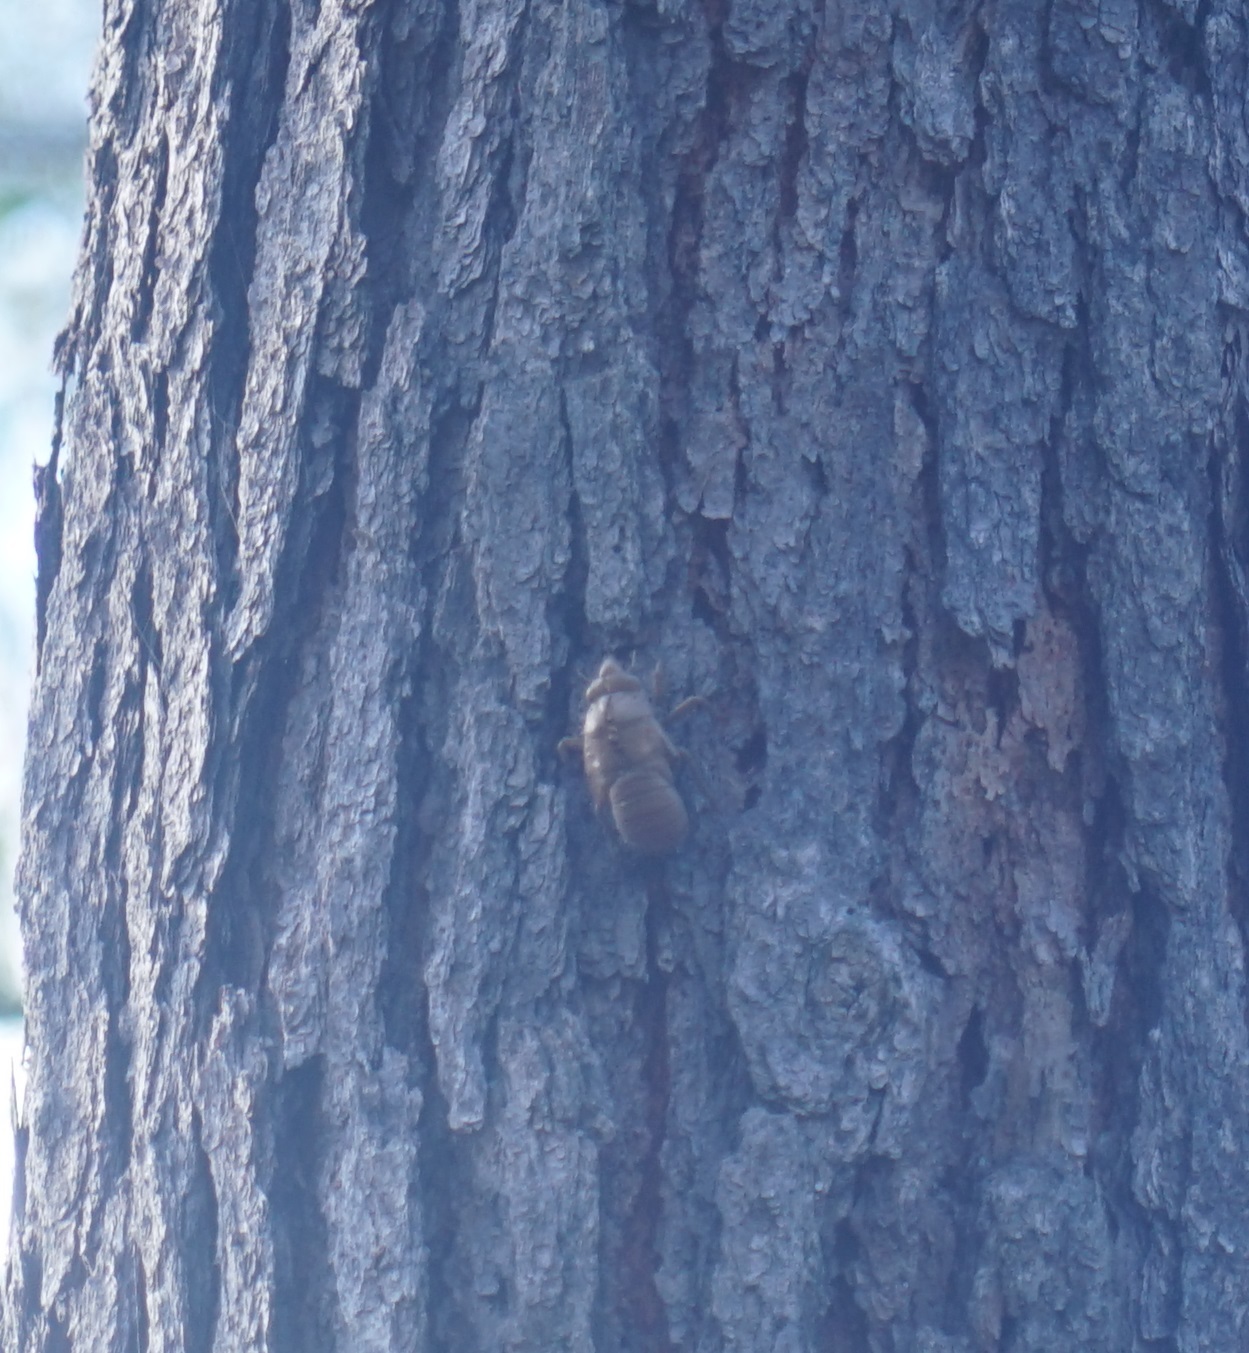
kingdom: Animalia
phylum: Arthropoda
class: Insecta
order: Hemiptera
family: Cicadidae
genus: Cyclochila
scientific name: Cyclochila australasiae
